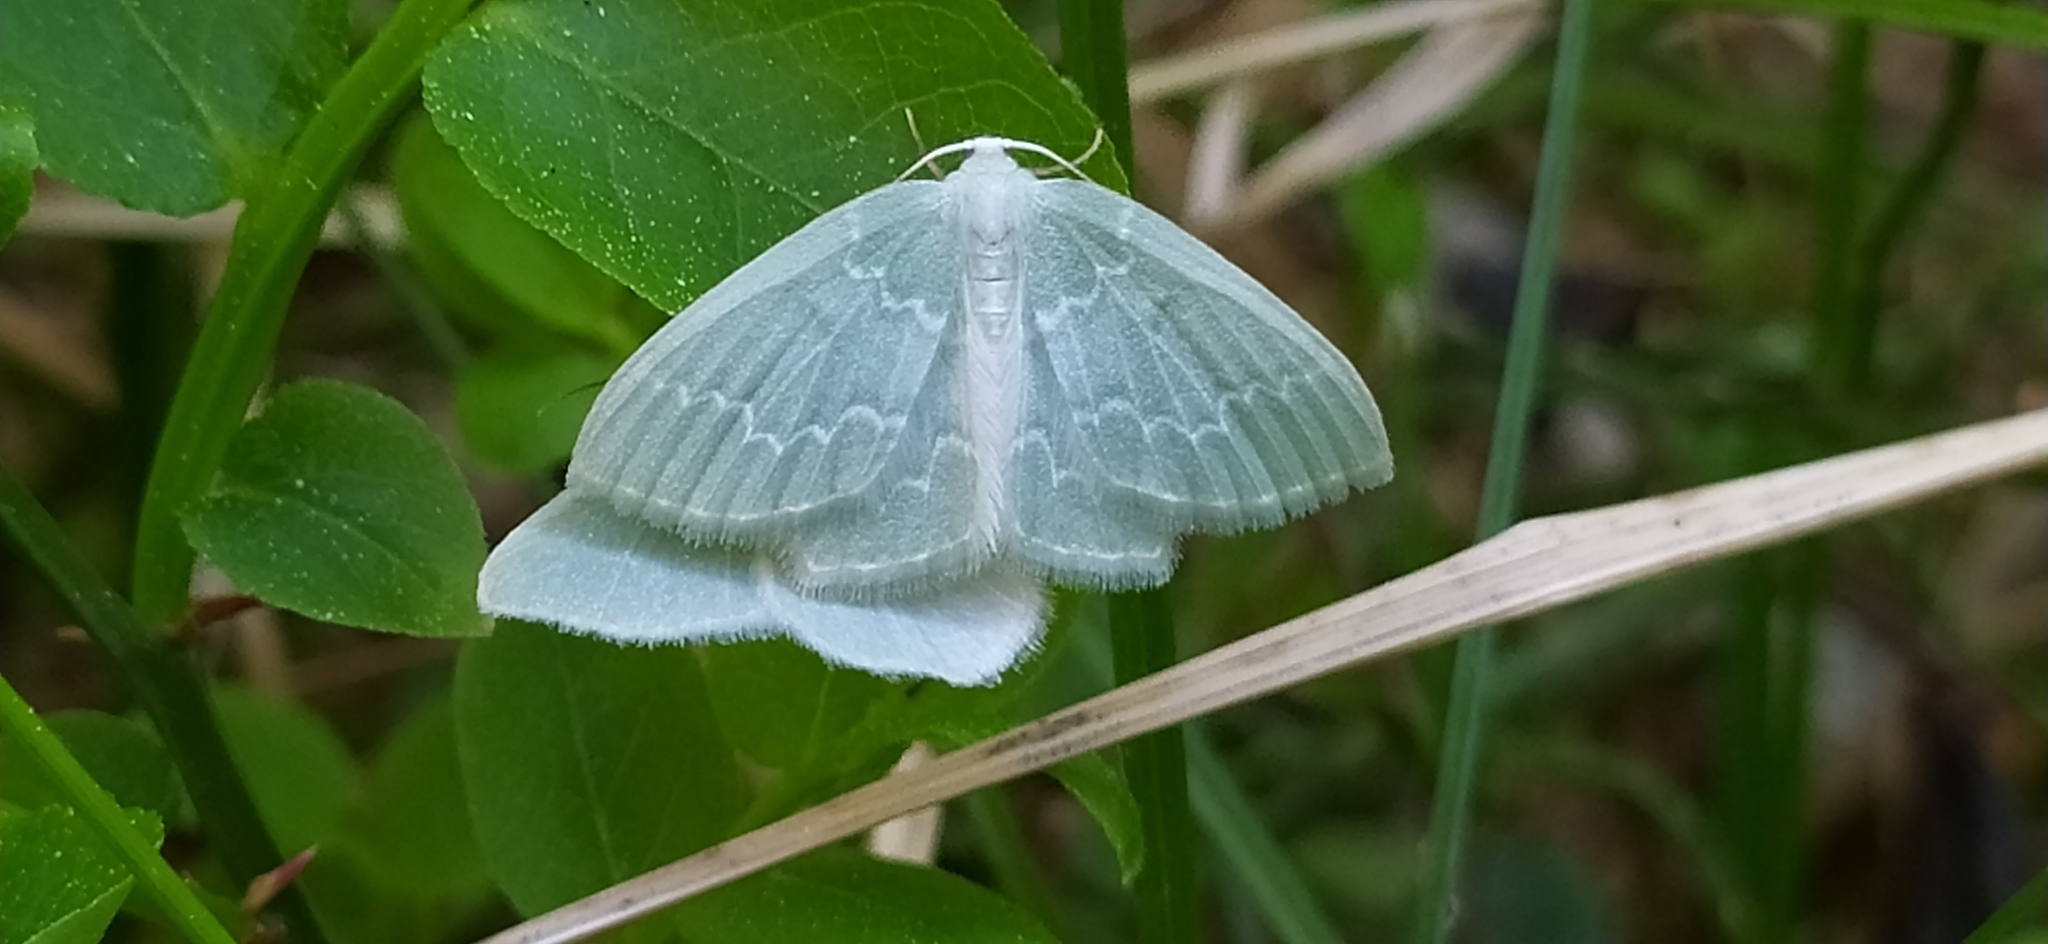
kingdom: Animalia
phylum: Arthropoda
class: Insecta
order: Lepidoptera
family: Geometridae
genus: Jodis
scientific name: Jodis putata
